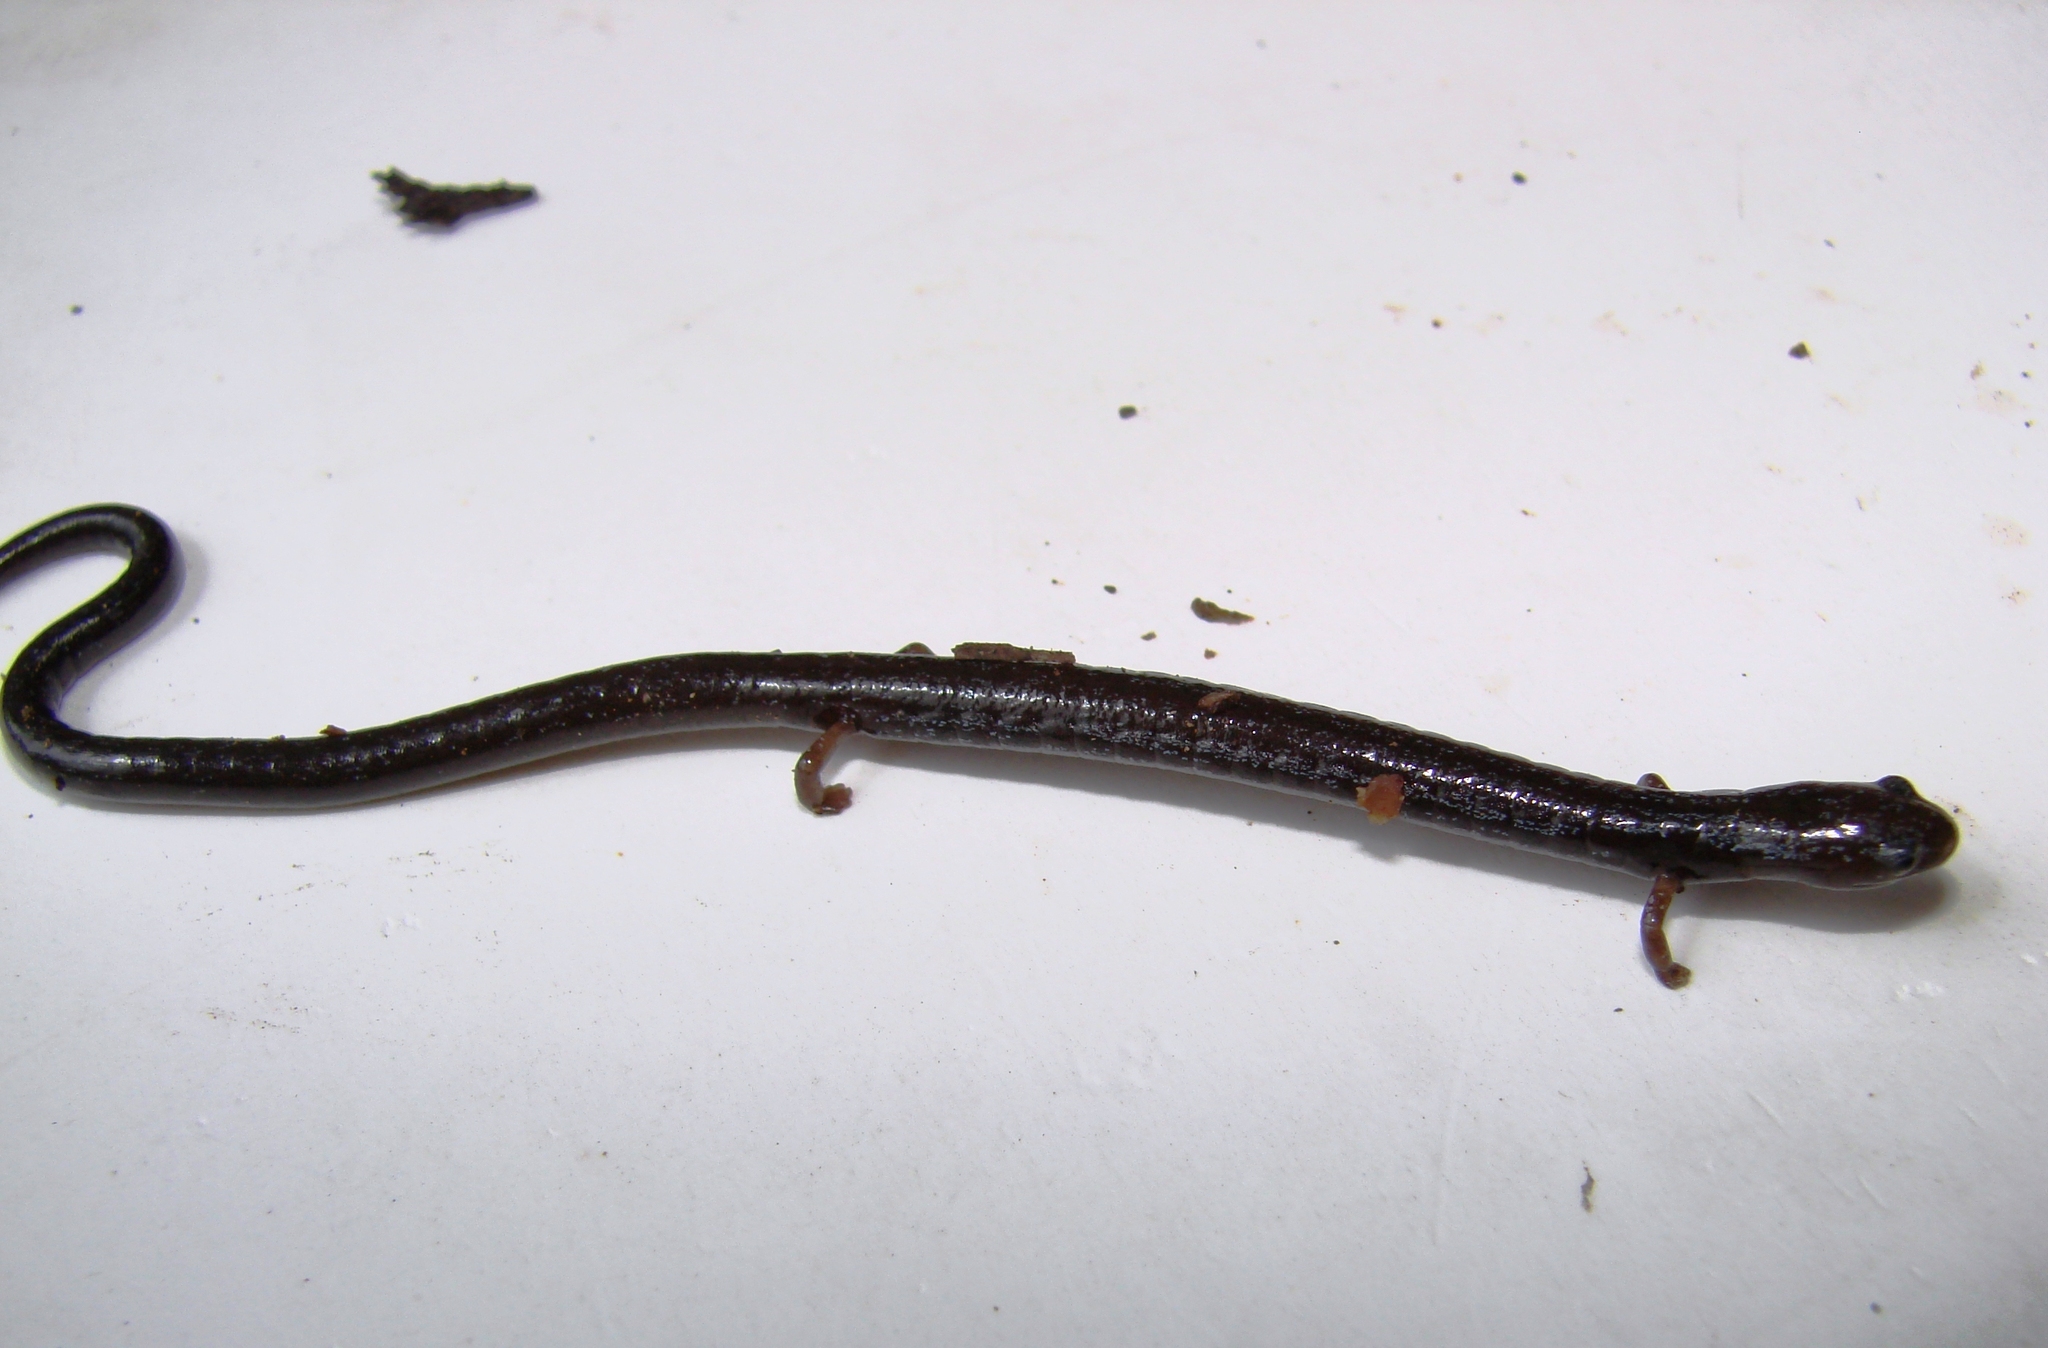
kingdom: Animalia
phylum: Chordata
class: Amphibia
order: Caudata
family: Plethodontidae
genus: Oedipina
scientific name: Oedipina motaguae
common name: Motagua worm salamander
